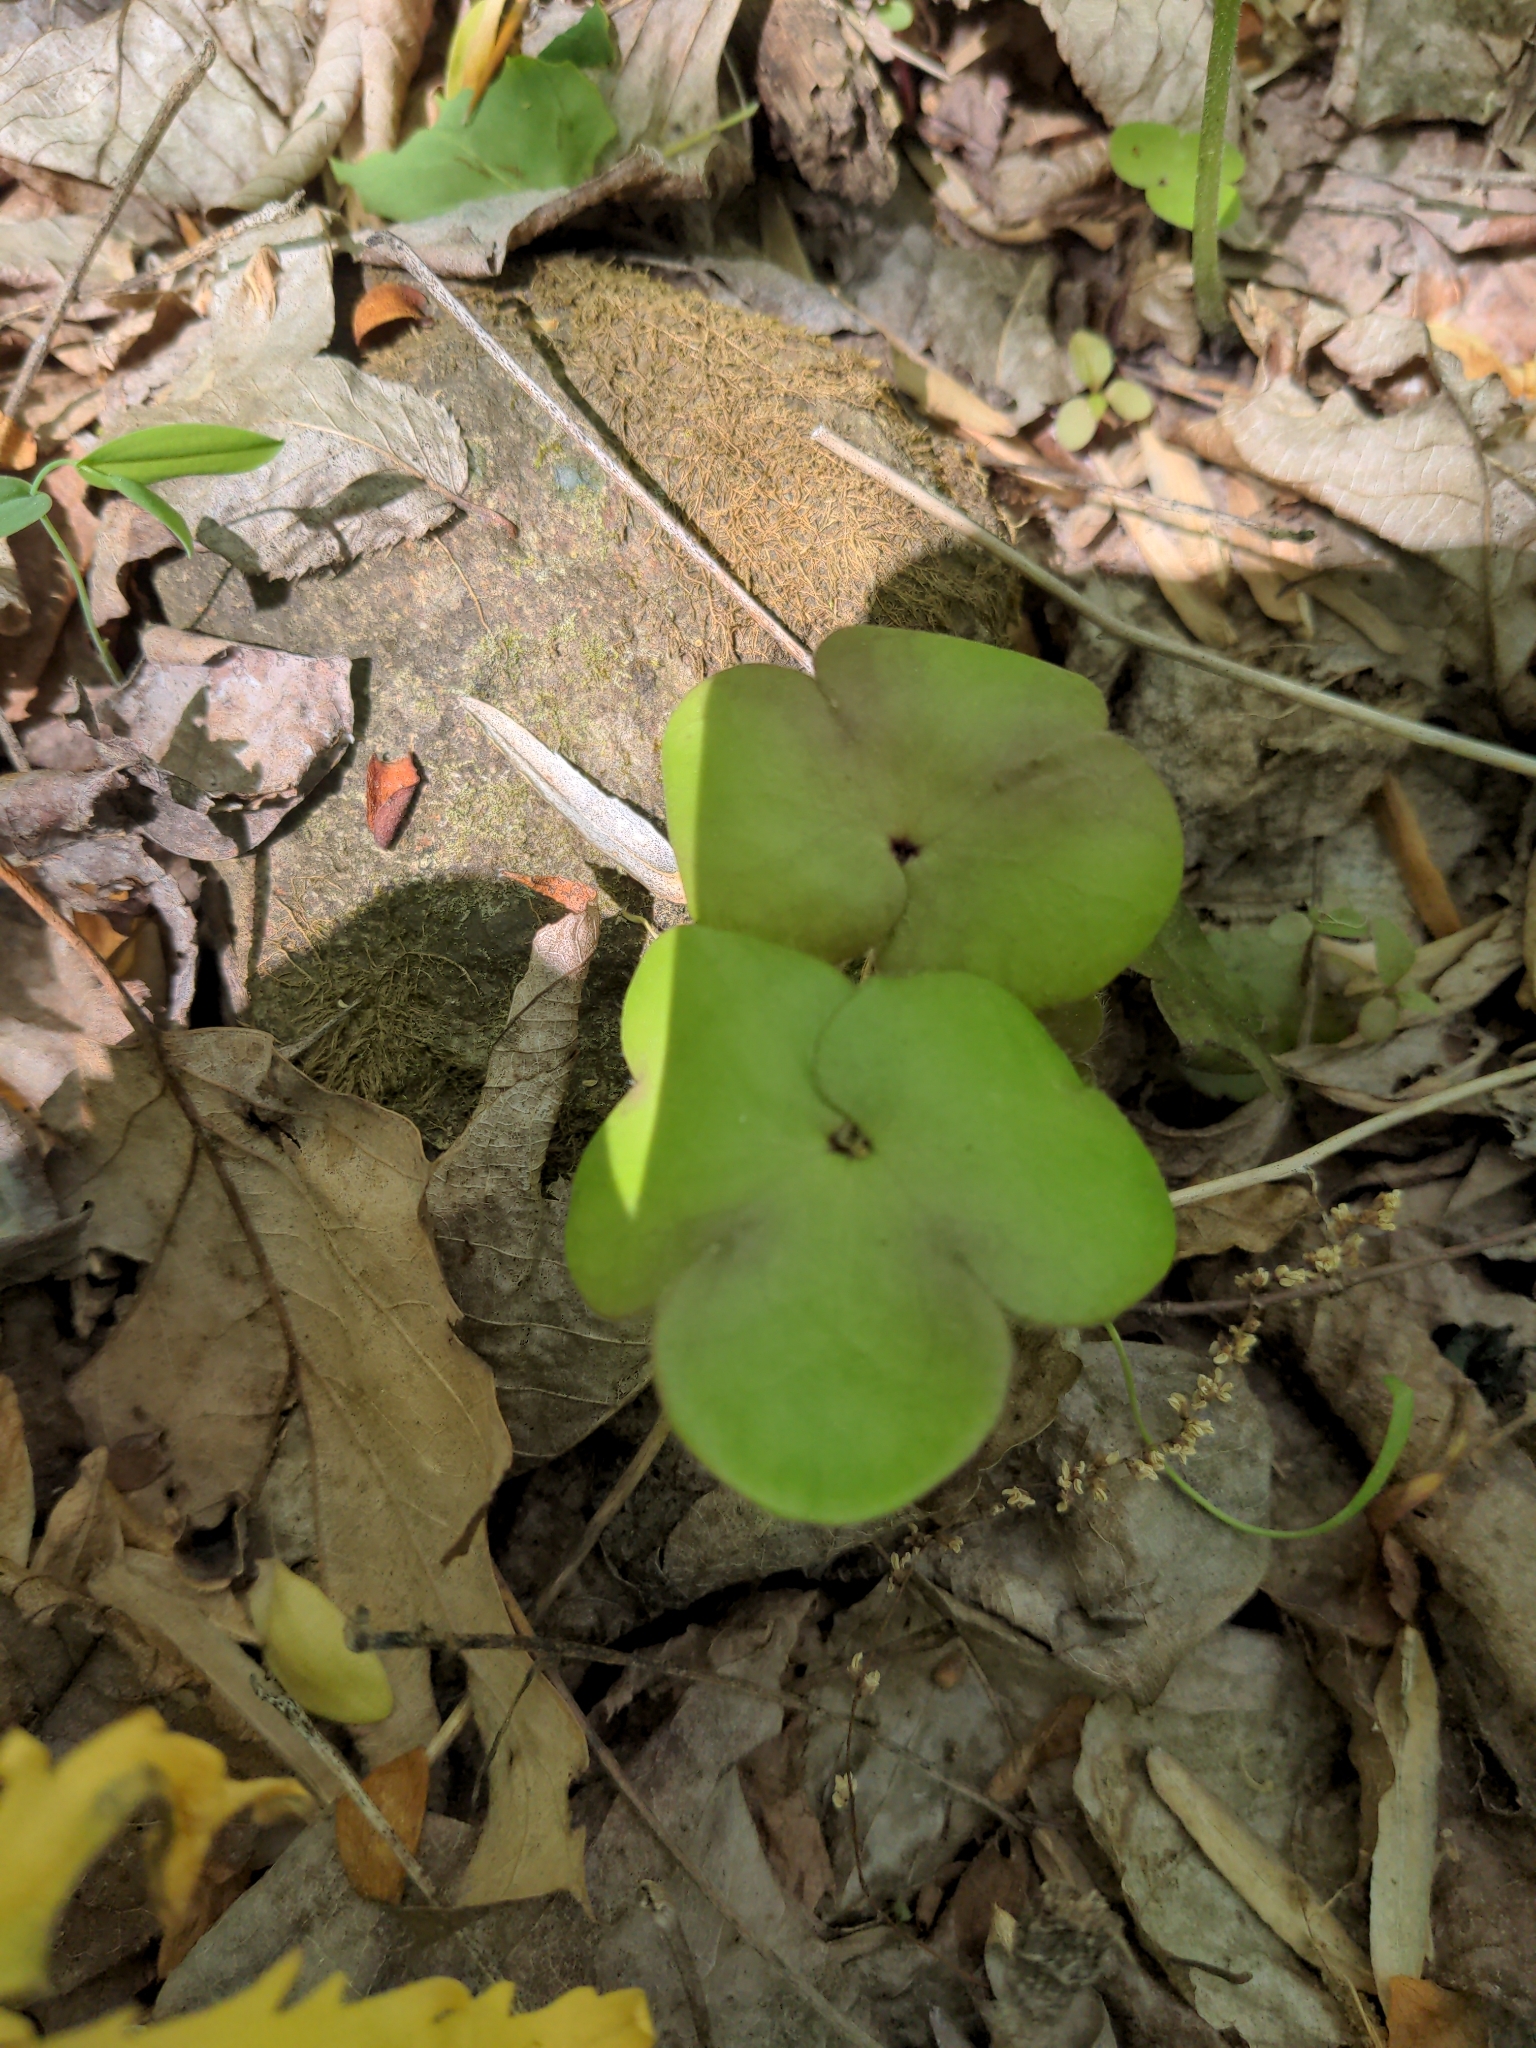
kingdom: Plantae
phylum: Tracheophyta
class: Magnoliopsida
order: Ranunculales
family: Ranunculaceae
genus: Hepatica
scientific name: Hepatica americana
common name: American hepatica
